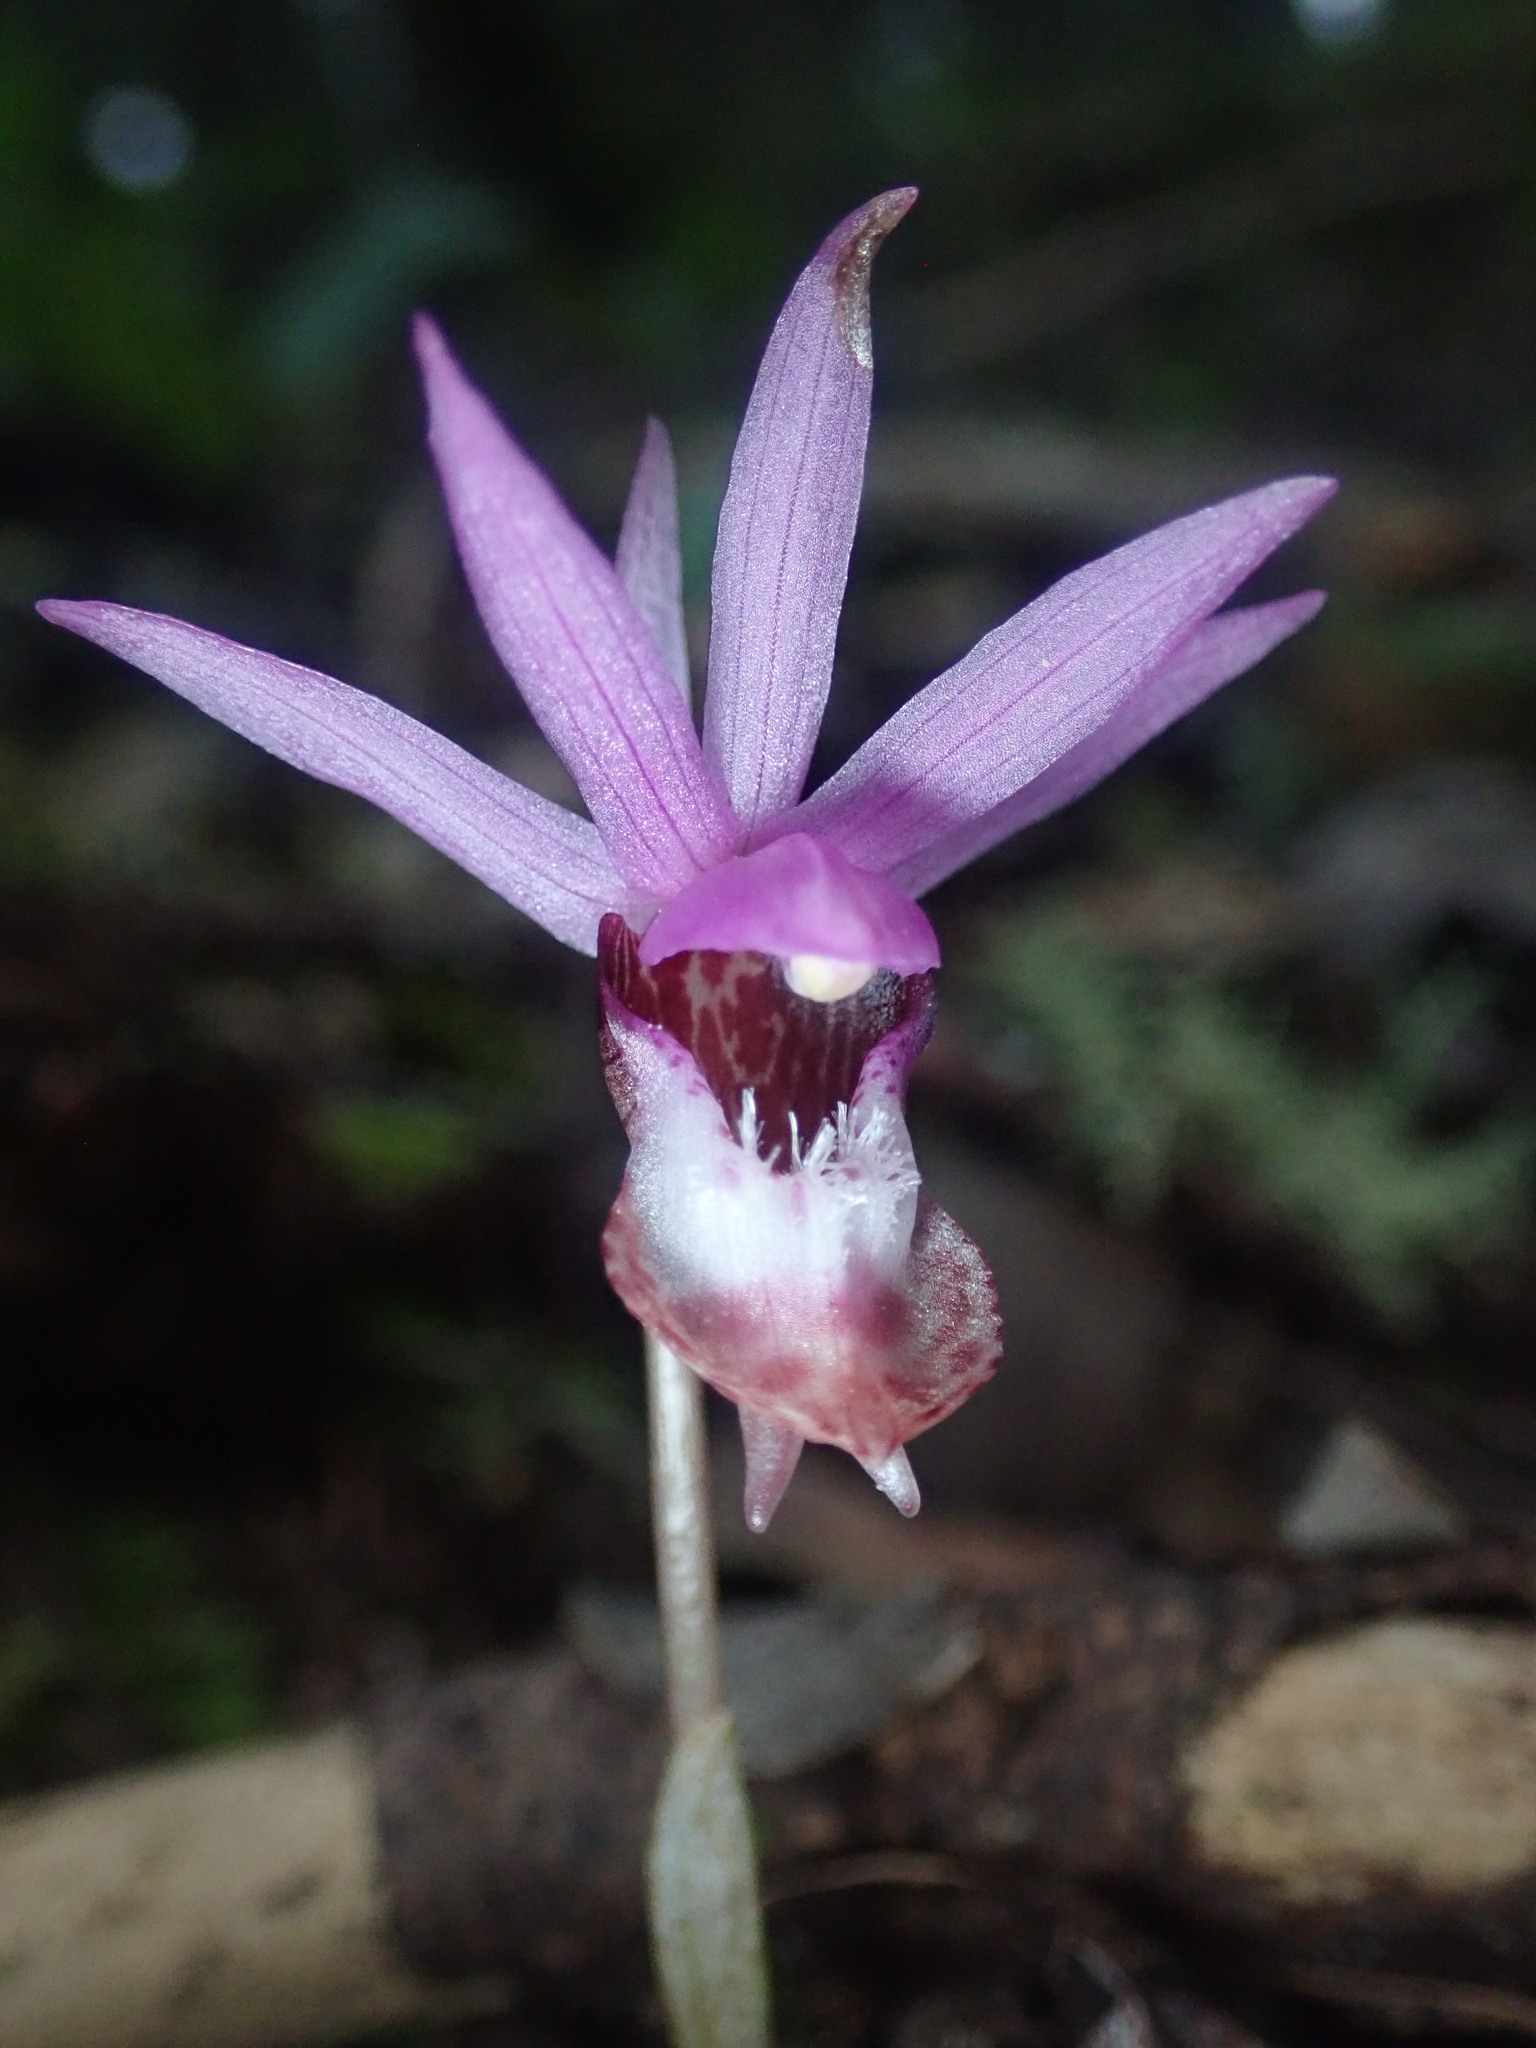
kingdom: Plantae
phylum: Tracheophyta
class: Liliopsida
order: Asparagales
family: Orchidaceae
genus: Calypso
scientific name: Calypso bulbosa
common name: Calypso
